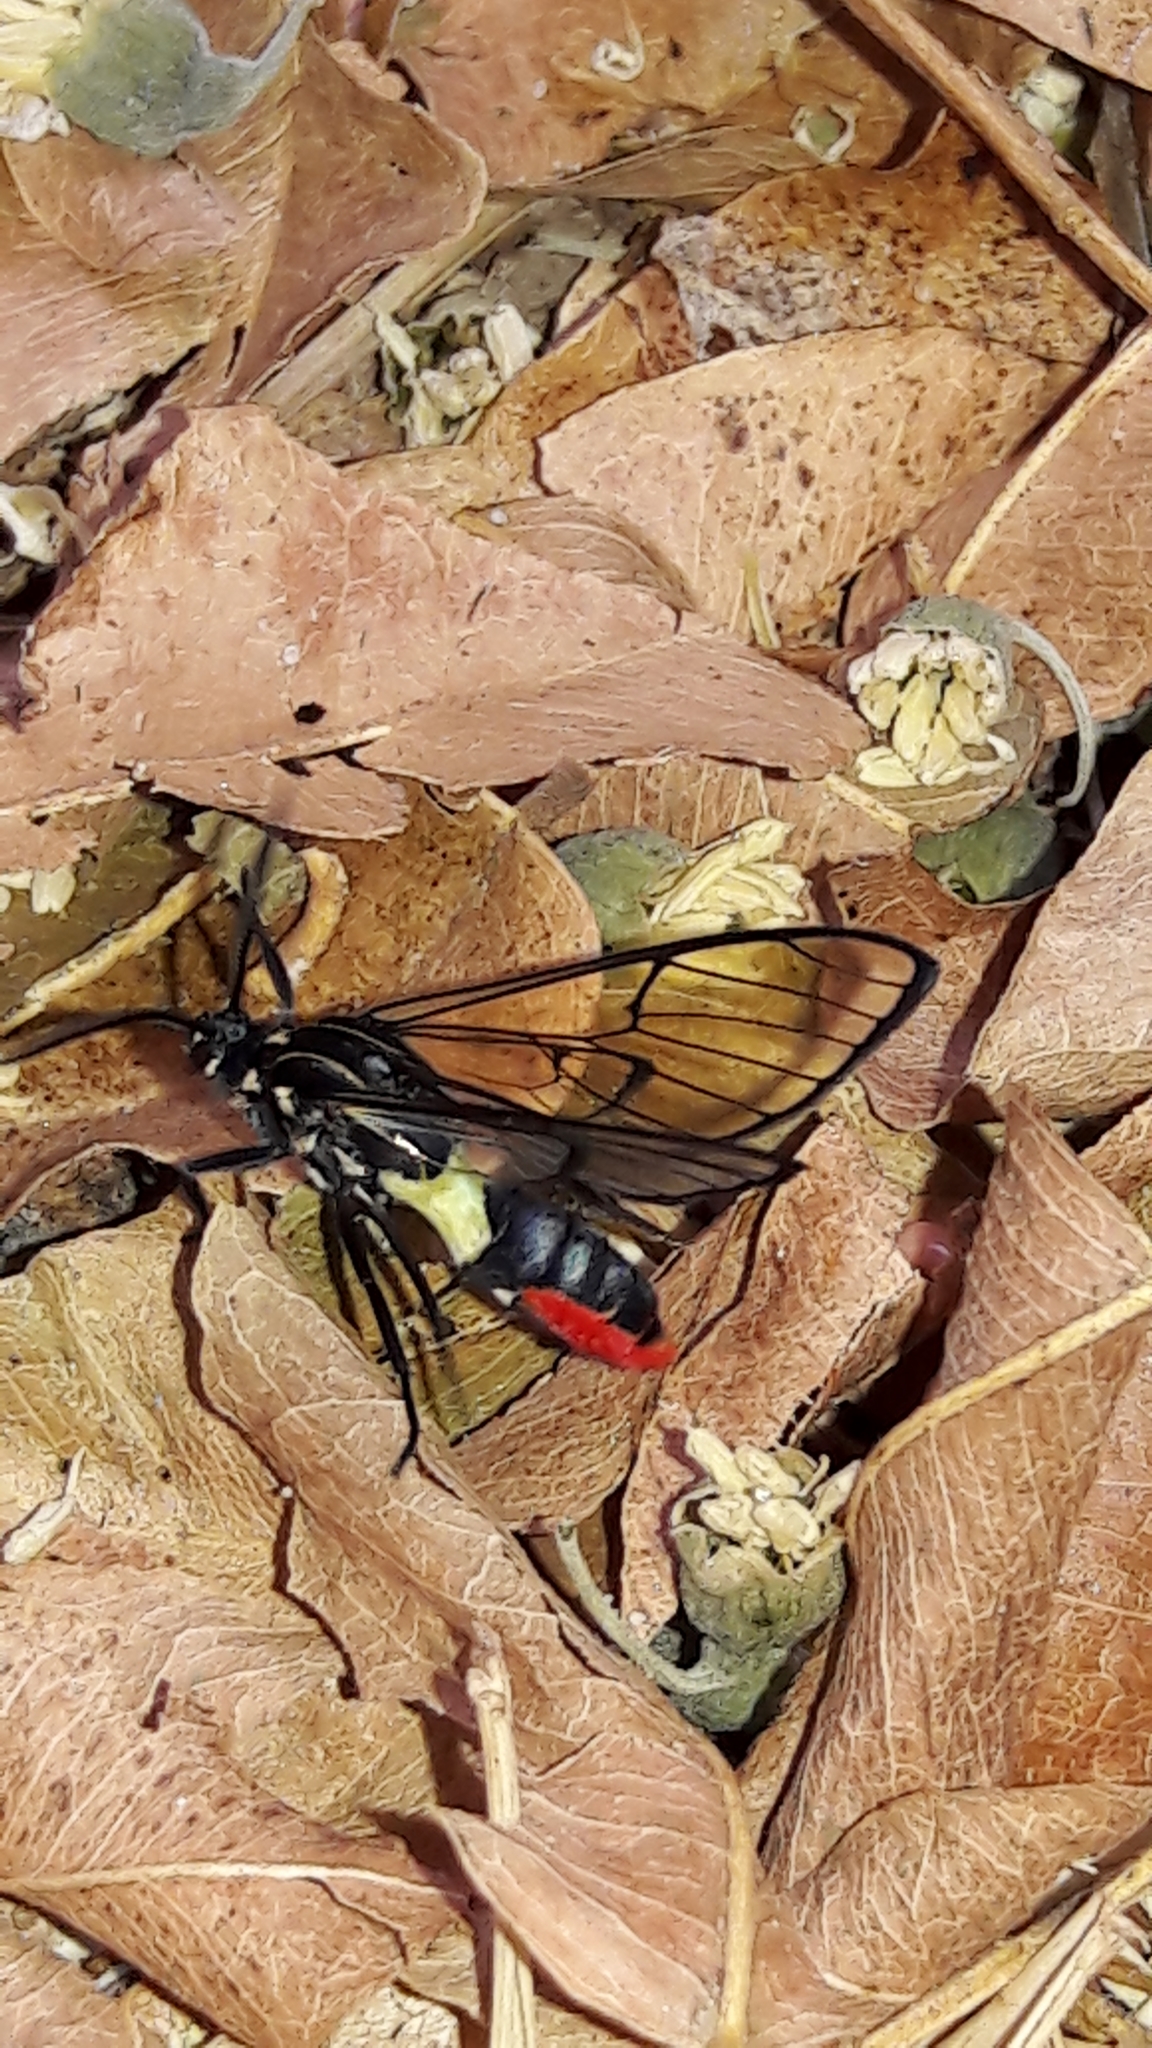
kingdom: Animalia
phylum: Arthropoda
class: Insecta
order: Lepidoptera
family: Erebidae
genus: Argyroeides
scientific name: Argyroeides ophion
